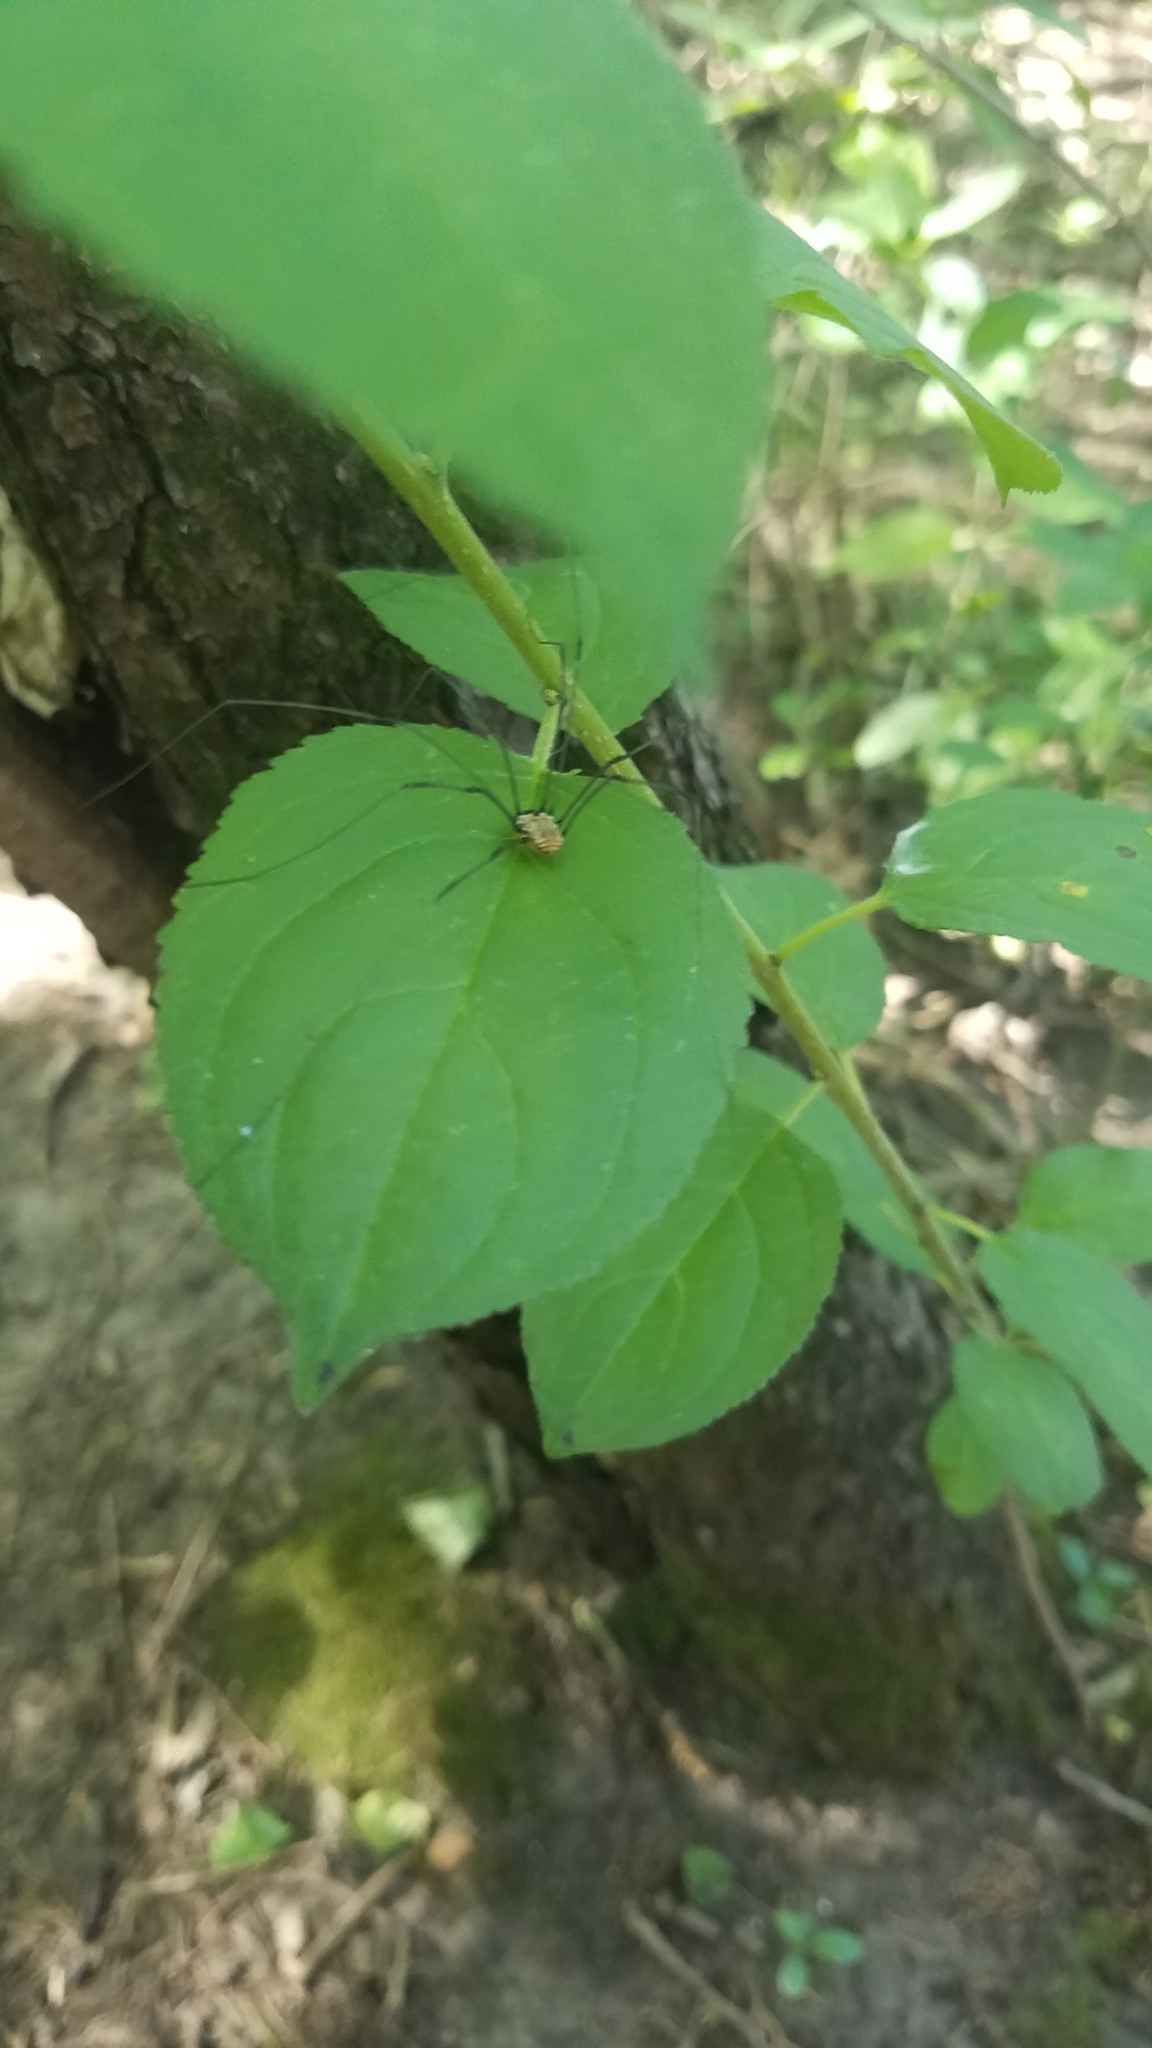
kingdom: Plantae
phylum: Tracheophyta
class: Magnoliopsida
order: Rosales
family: Rhamnaceae
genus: Rhamnus
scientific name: Rhamnus cathartica
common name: Common buckthorn
